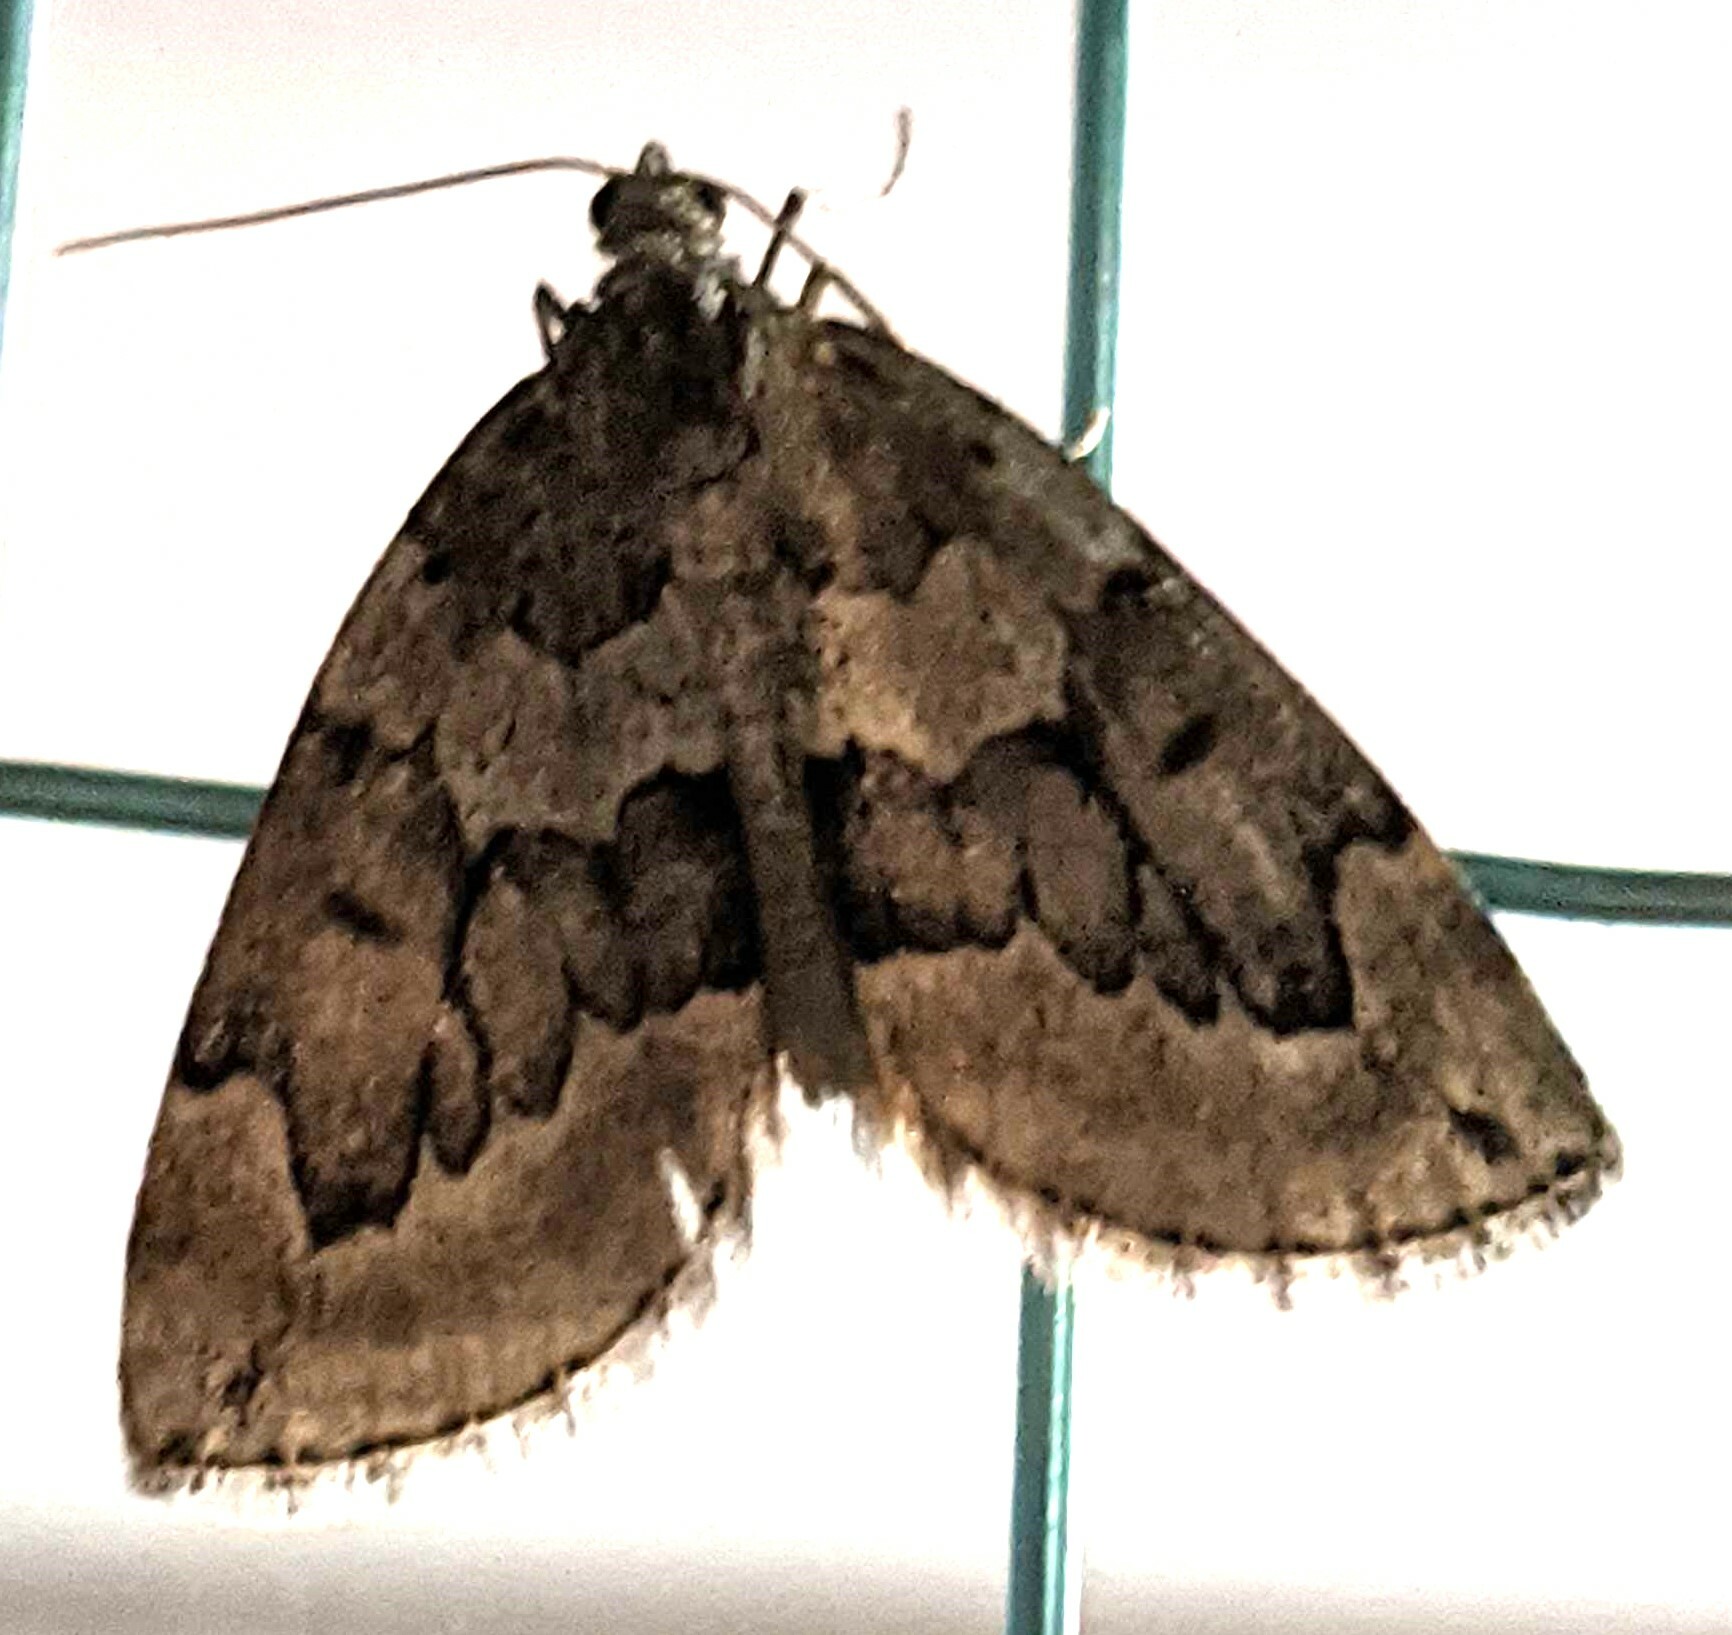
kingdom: Animalia
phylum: Arthropoda
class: Insecta
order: Lepidoptera
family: Geometridae
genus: Thera
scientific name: Thera juniperata
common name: Juniper carpet
